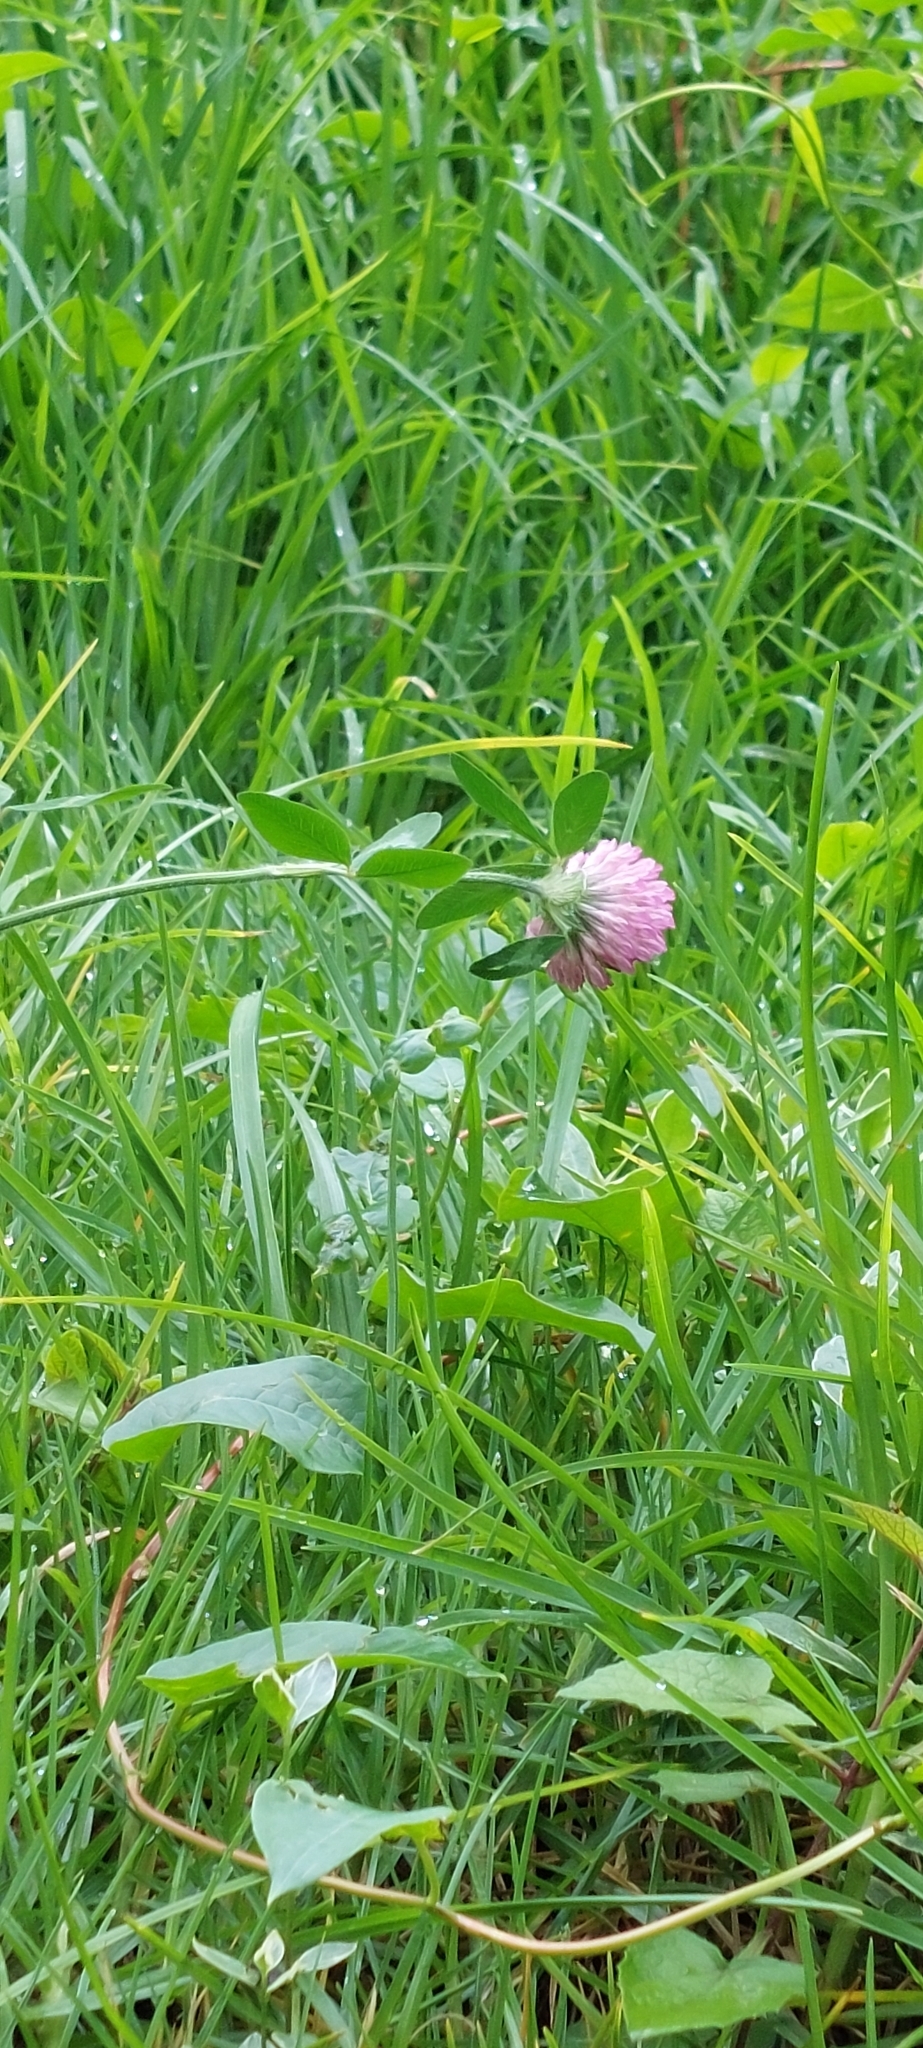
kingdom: Plantae
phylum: Tracheophyta
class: Magnoliopsida
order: Fabales
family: Fabaceae
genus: Trifolium
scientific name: Trifolium pratense
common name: Red clover
